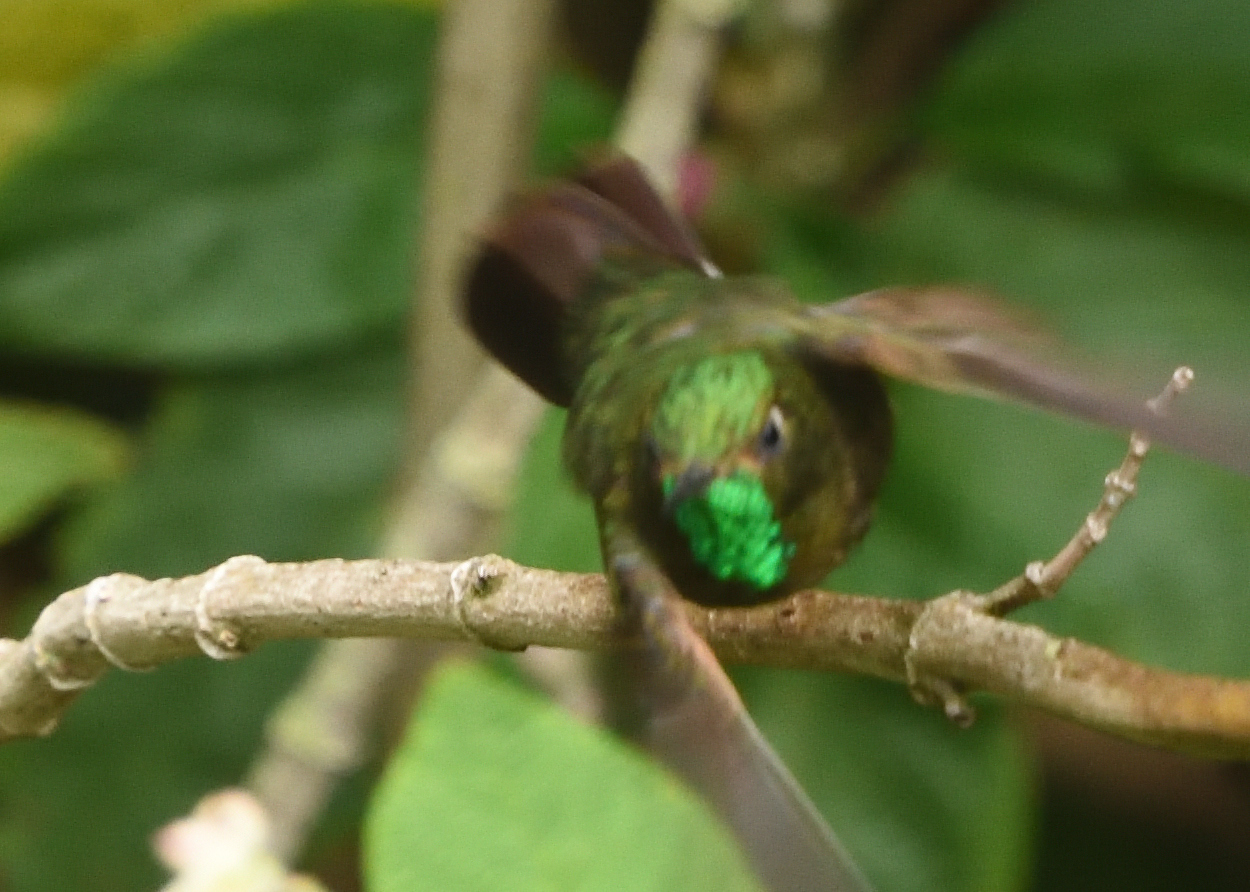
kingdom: Animalia
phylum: Chordata
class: Aves
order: Apodiformes
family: Trochilidae
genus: Metallura
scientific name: Metallura tyrianthina
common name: Tyrian metaltail
